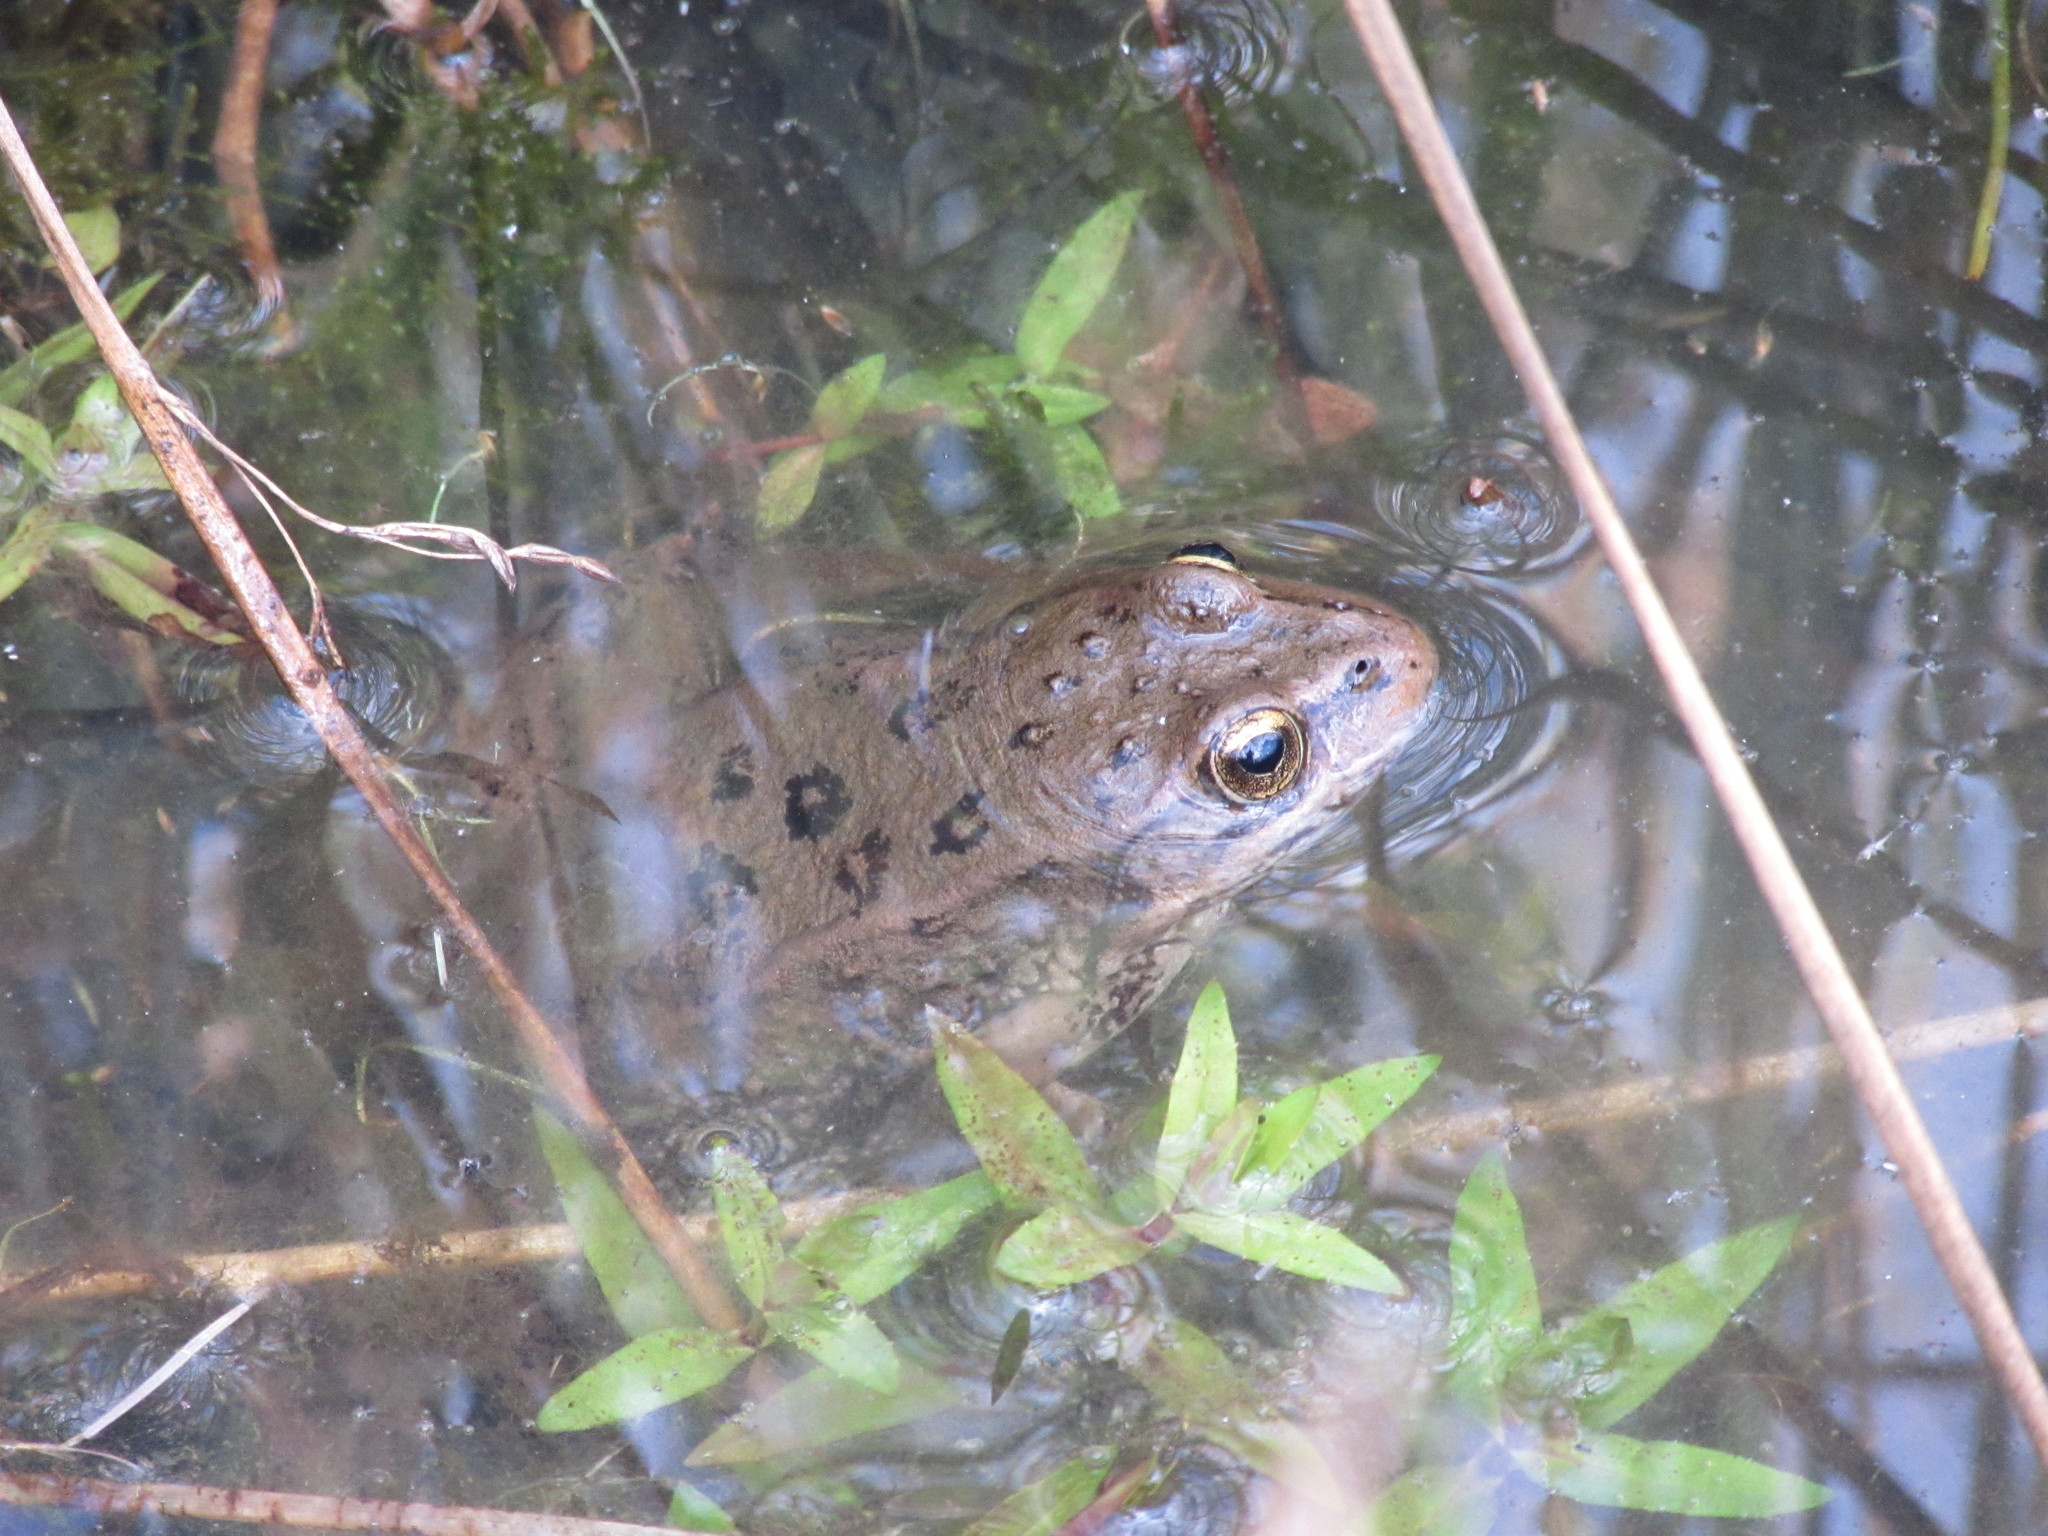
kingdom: Animalia
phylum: Chordata
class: Amphibia
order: Anura
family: Ranidae
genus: Rana
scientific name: Rana luteiventris
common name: Columbia spotted frog
